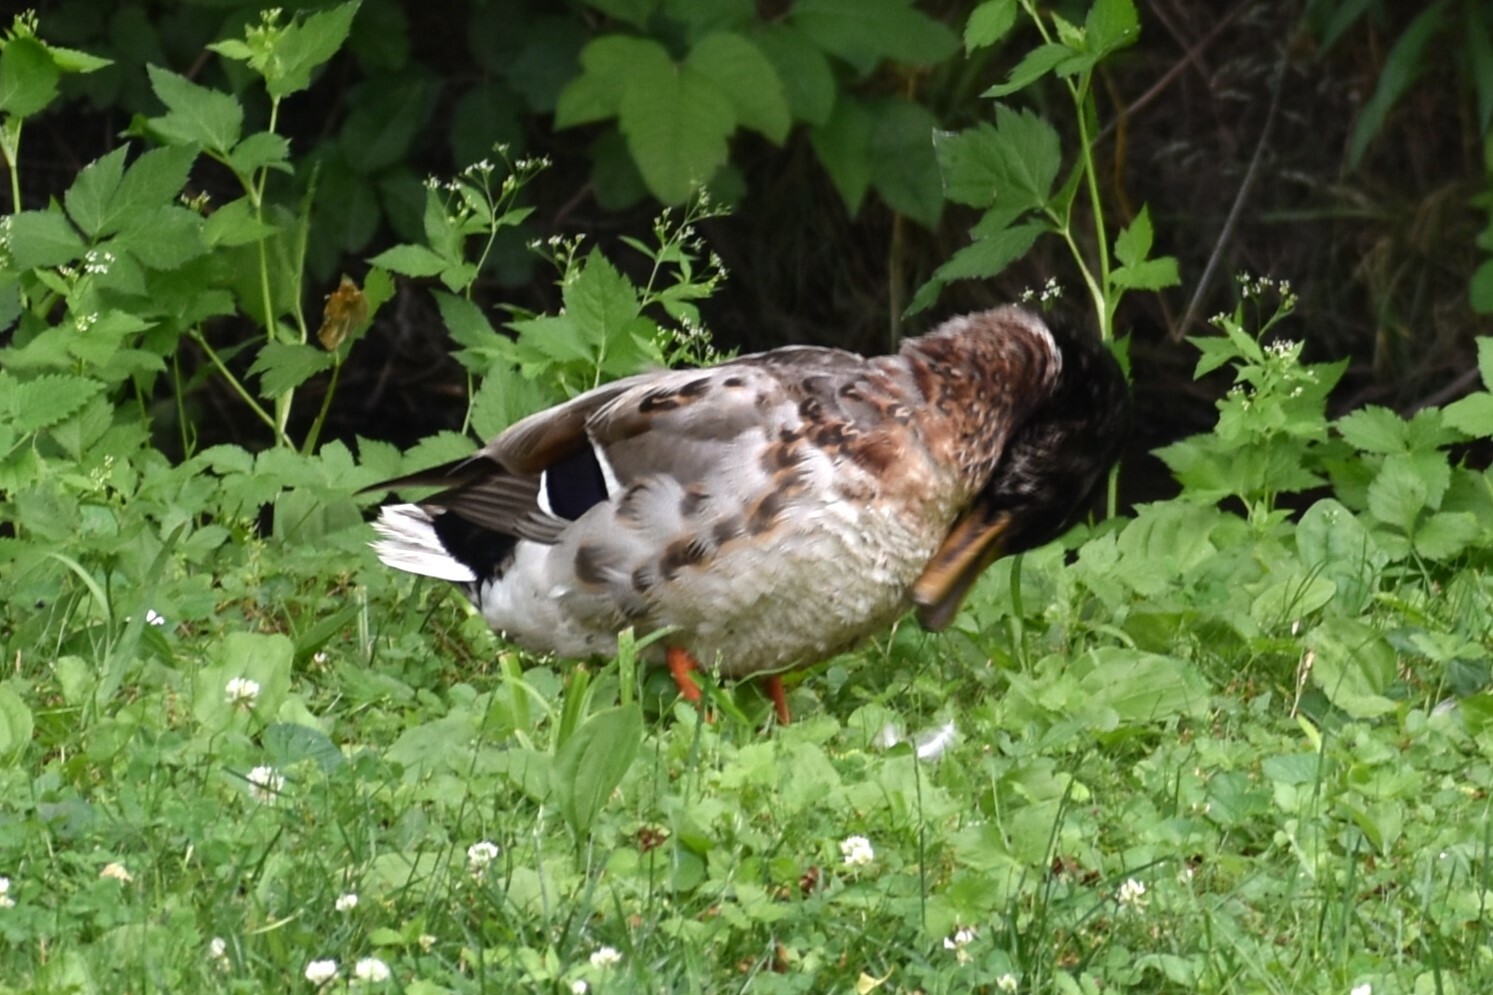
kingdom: Animalia
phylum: Chordata
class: Aves
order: Anseriformes
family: Anatidae
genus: Anas
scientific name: Anas platyrhynchos
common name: Mallard
